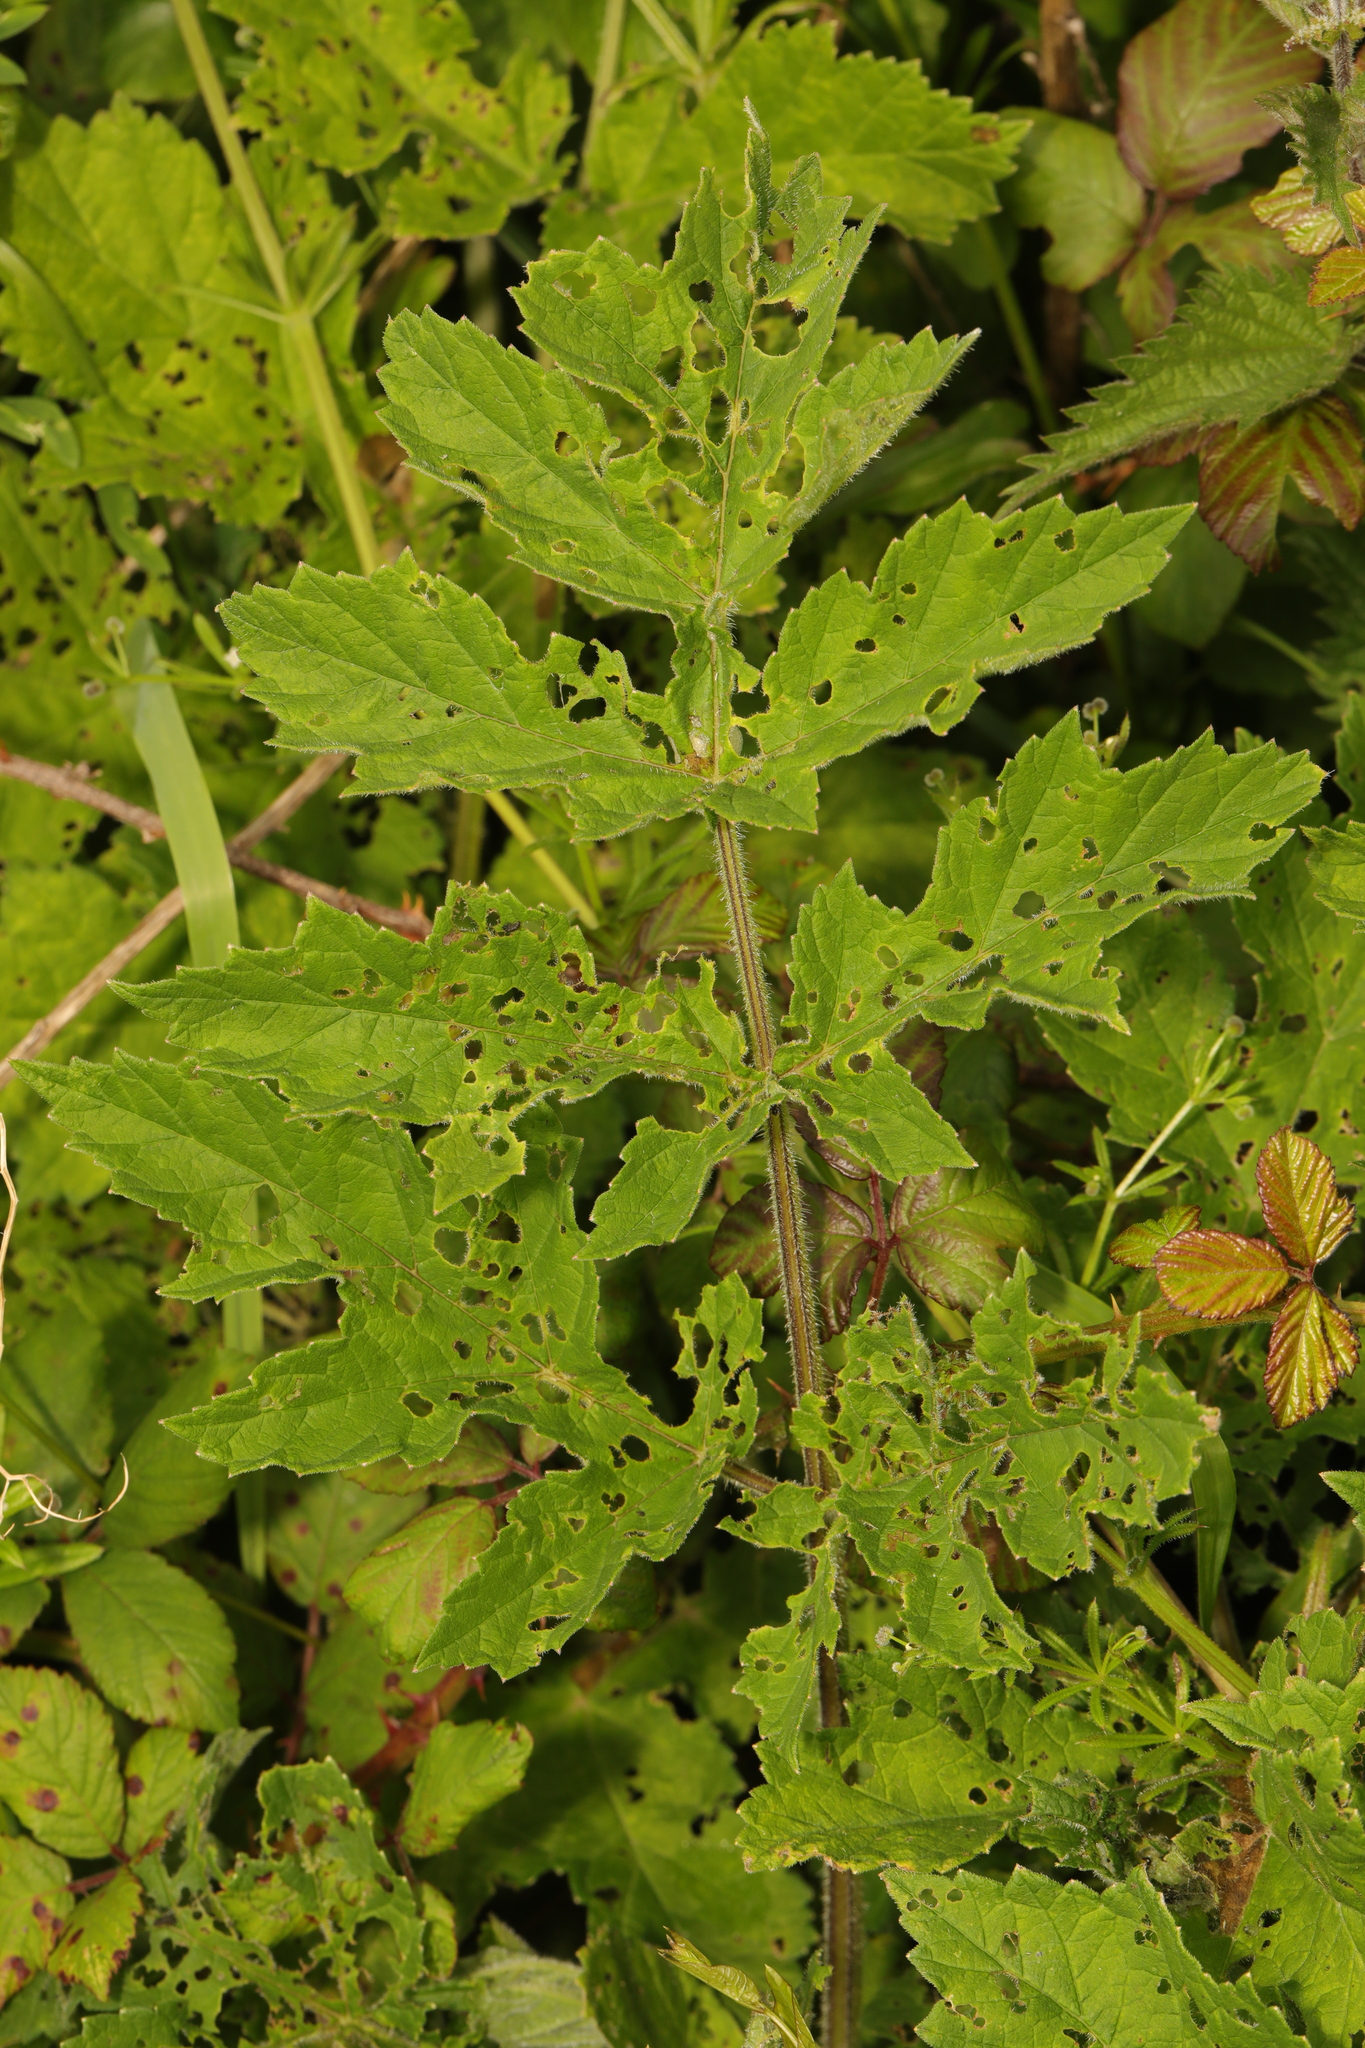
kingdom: Plantae
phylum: Tracheophyta
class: Magnoliopsida
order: Apiales
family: Apiaceae
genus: Heracleum
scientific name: Heracleum sphondylium
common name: Hogweed
